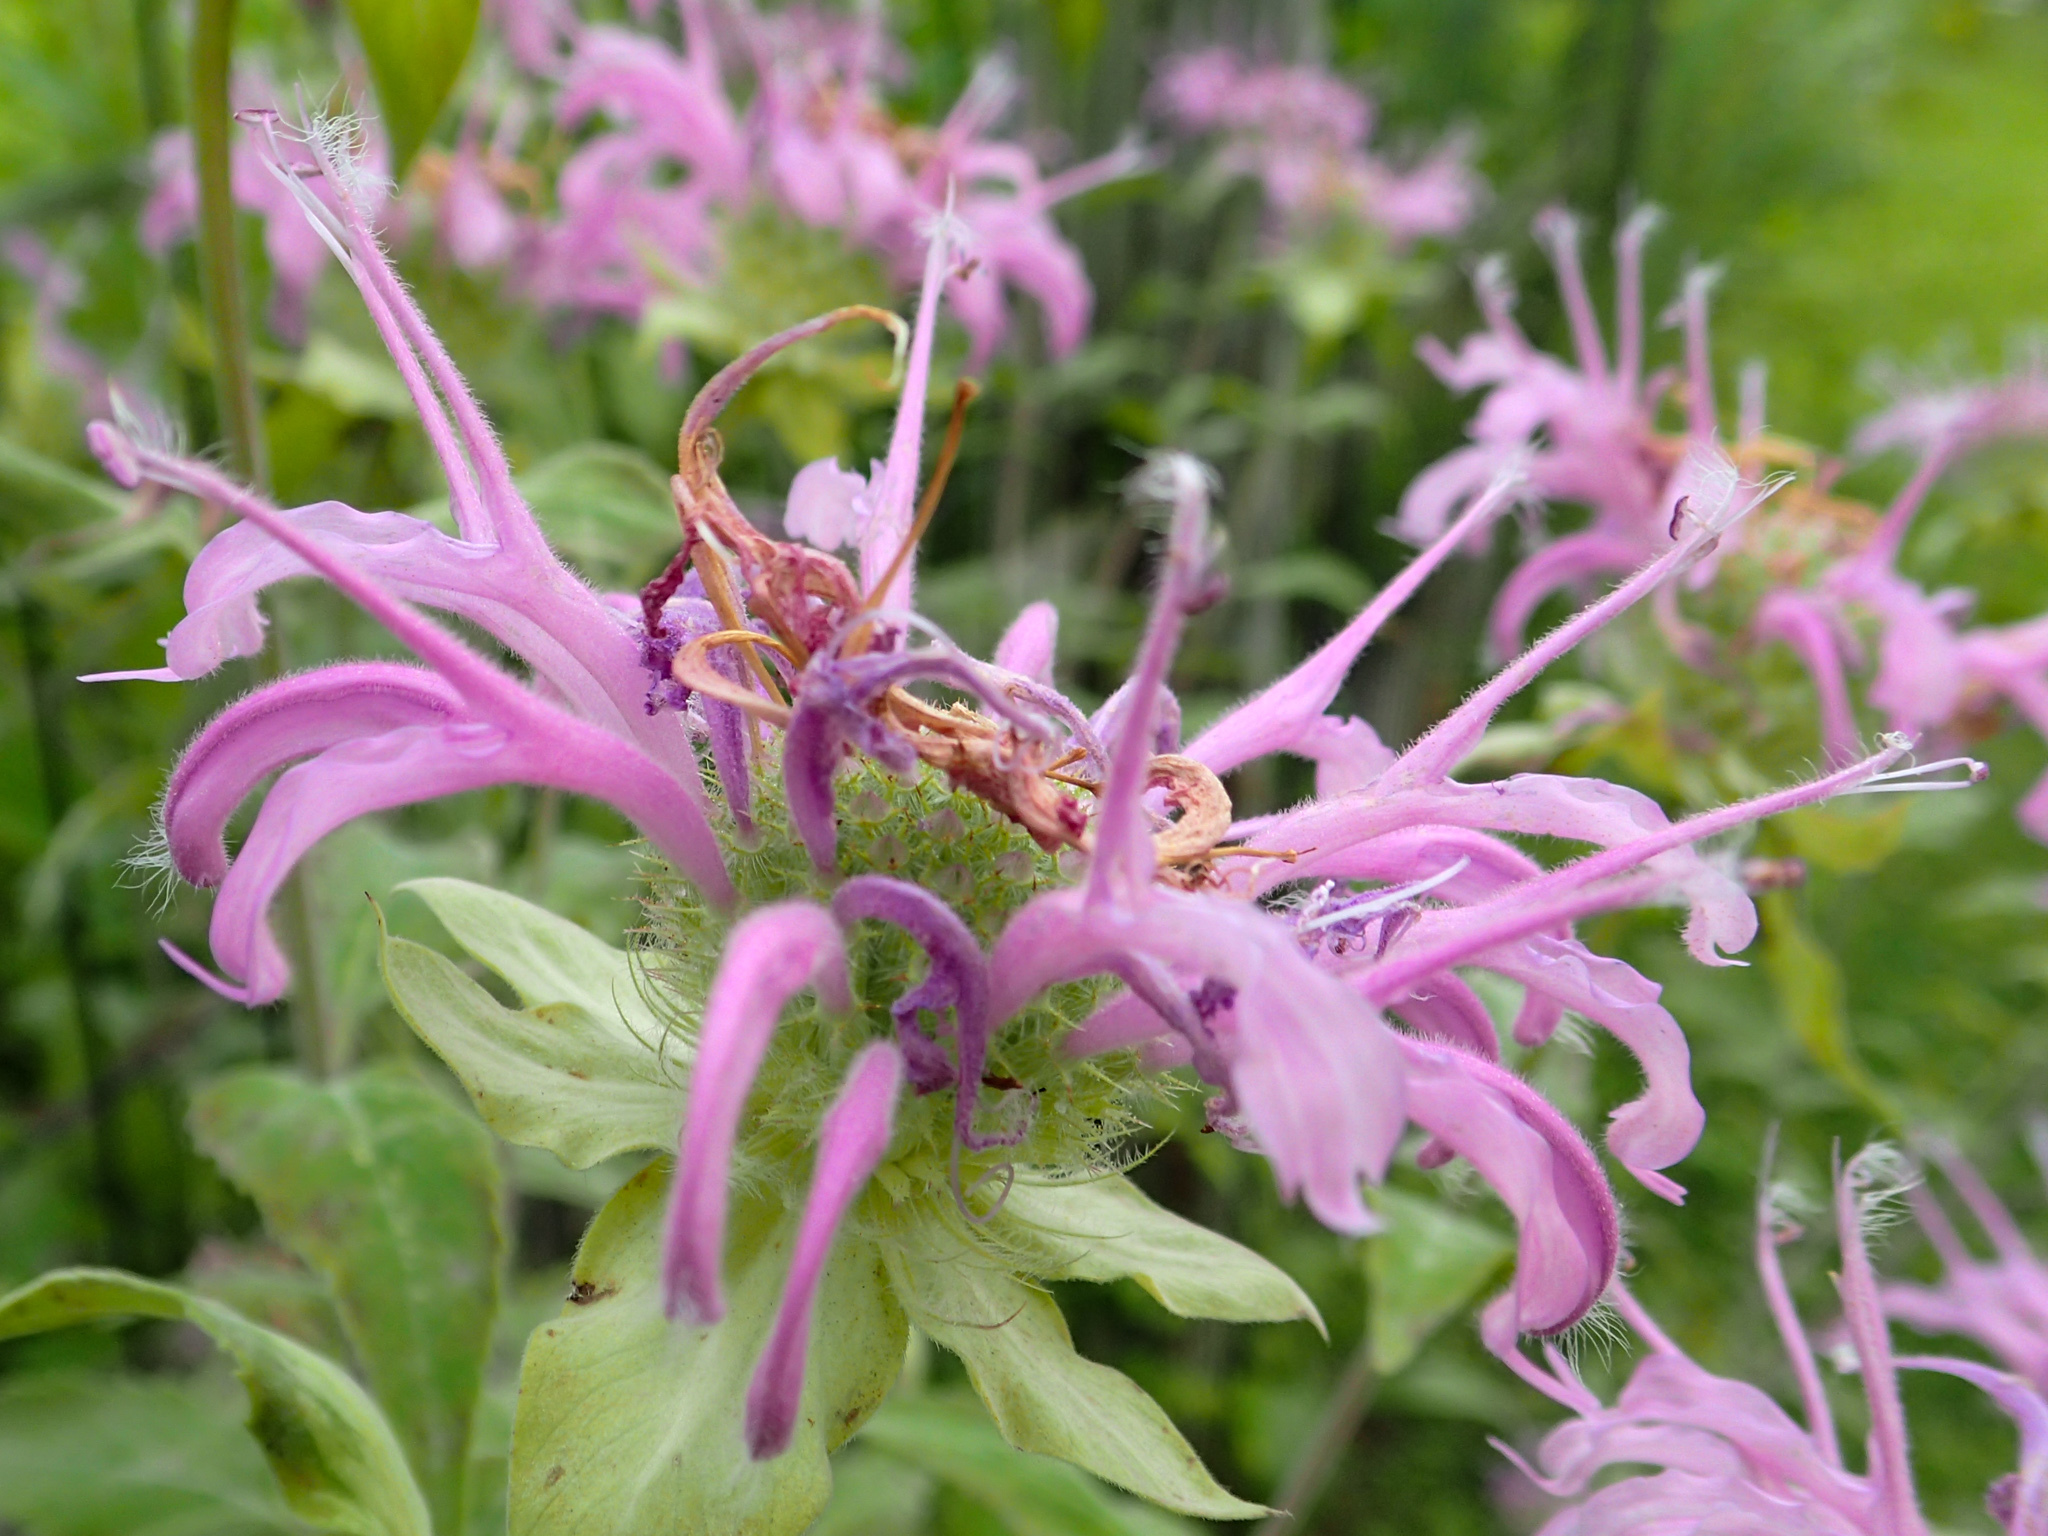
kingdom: Plantae
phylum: Tracheophyta
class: Magnoliopsida
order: Lamiales
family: Lamiaceae
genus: Monarda
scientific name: Monarda fistulosa
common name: Purple beebalm
